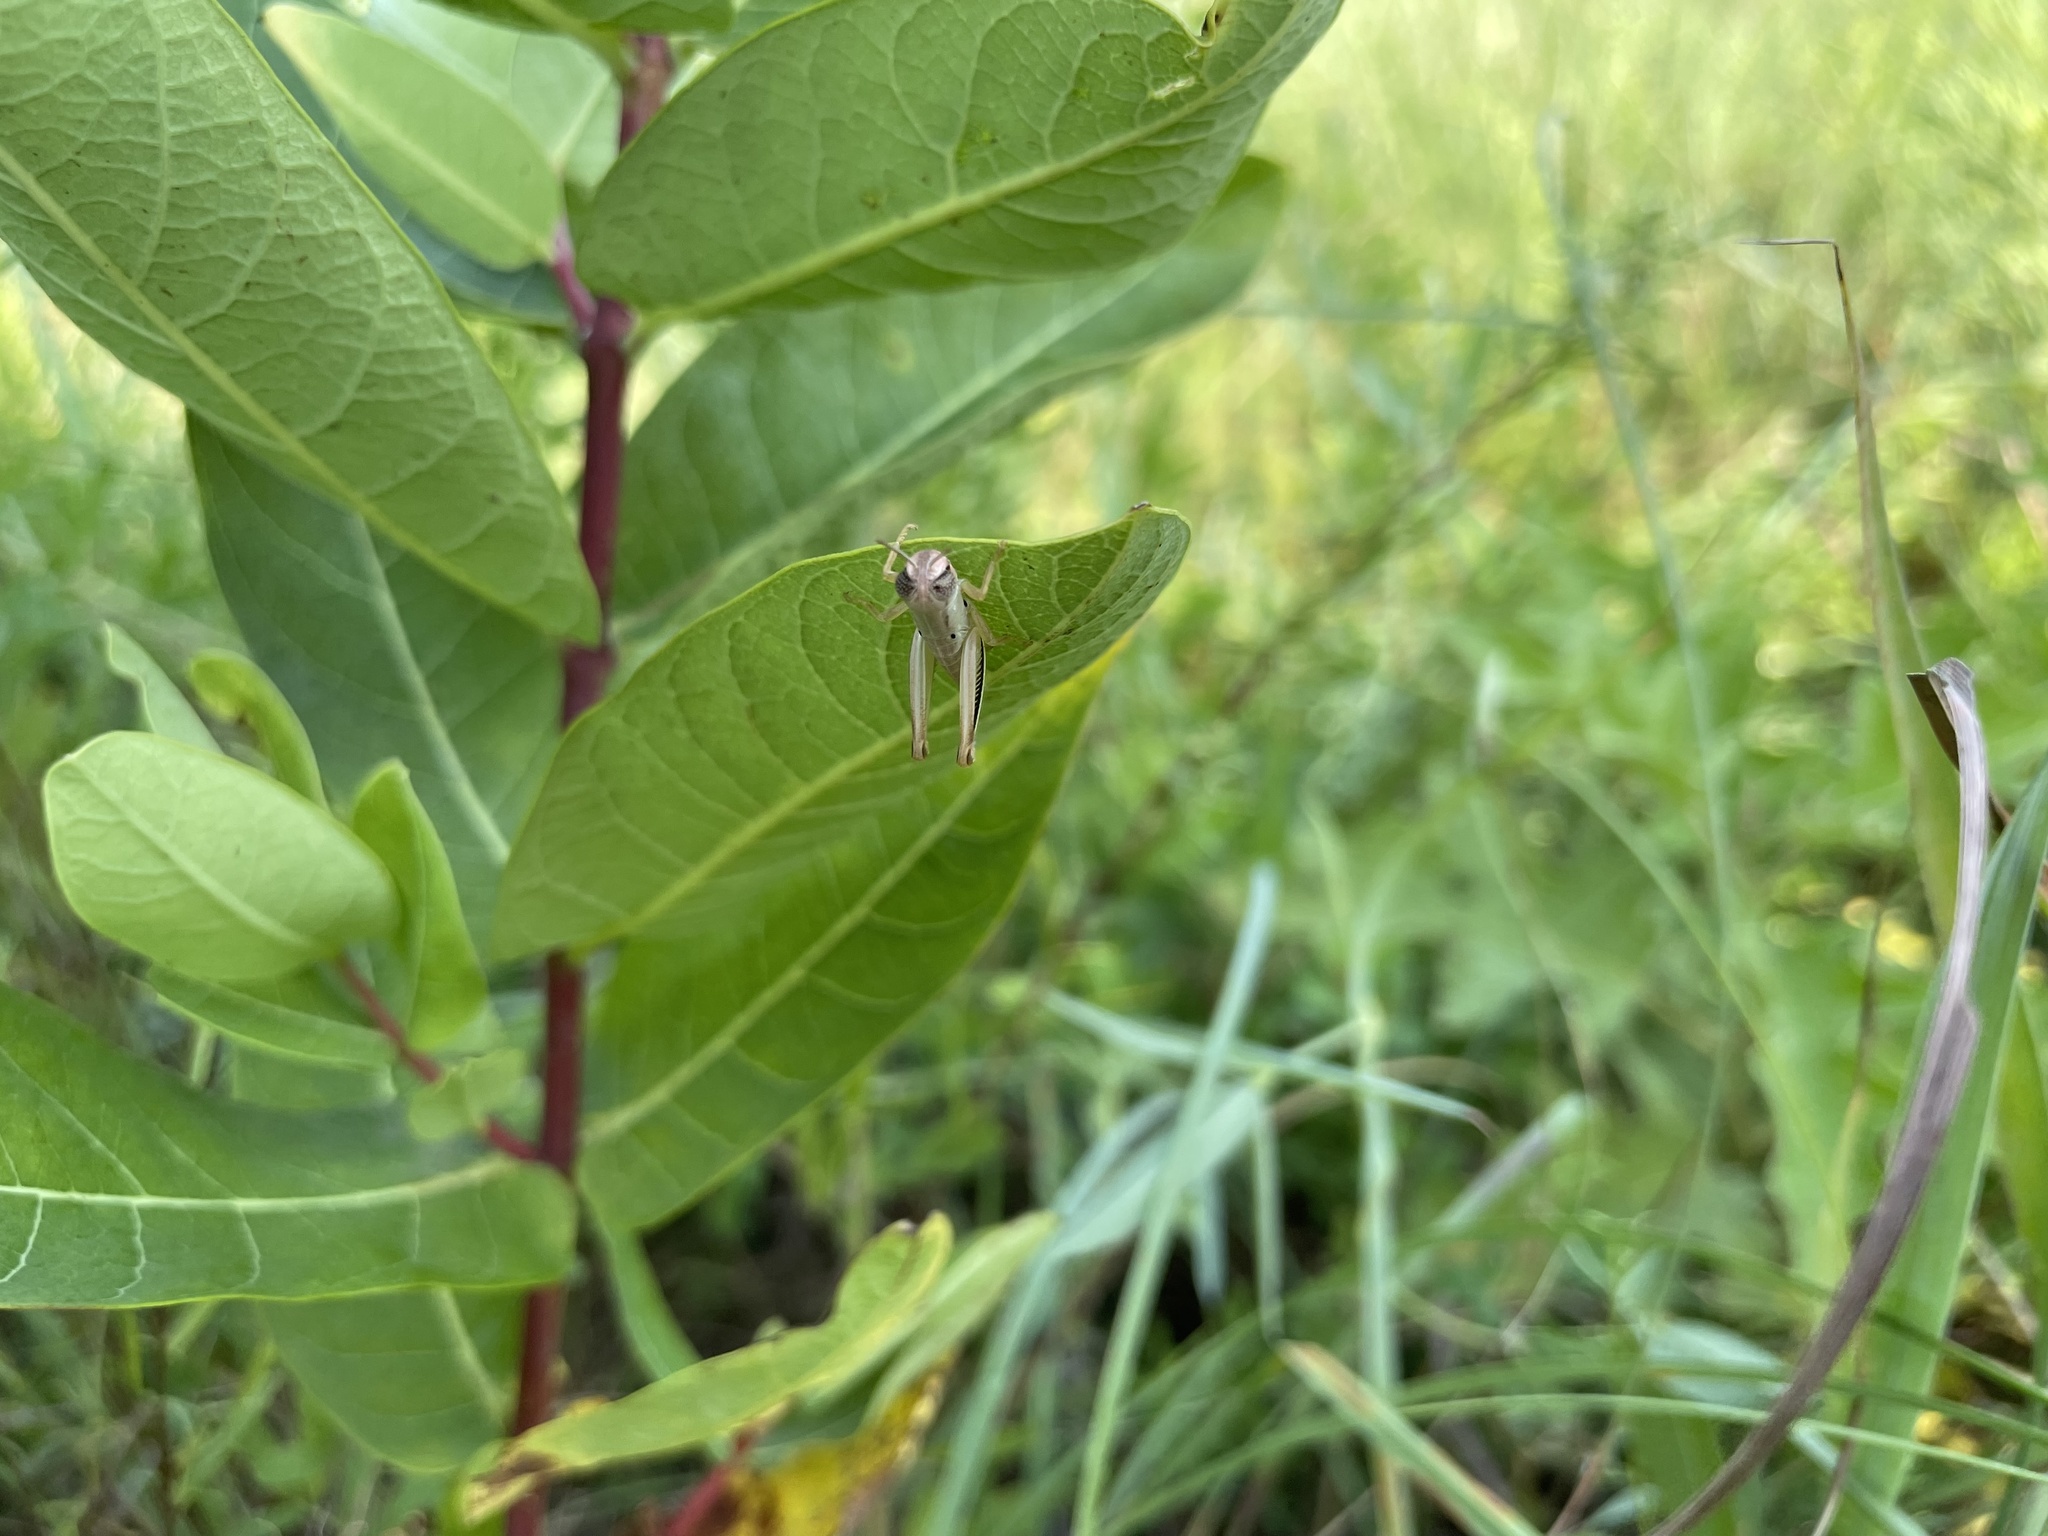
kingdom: Animalia
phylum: Arthropoda
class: Insecta
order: Orthoptera
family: Acrididae
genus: Phoetaliotes
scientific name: Phoetaliotes nebrascensis
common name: Large-headed grasshopper
